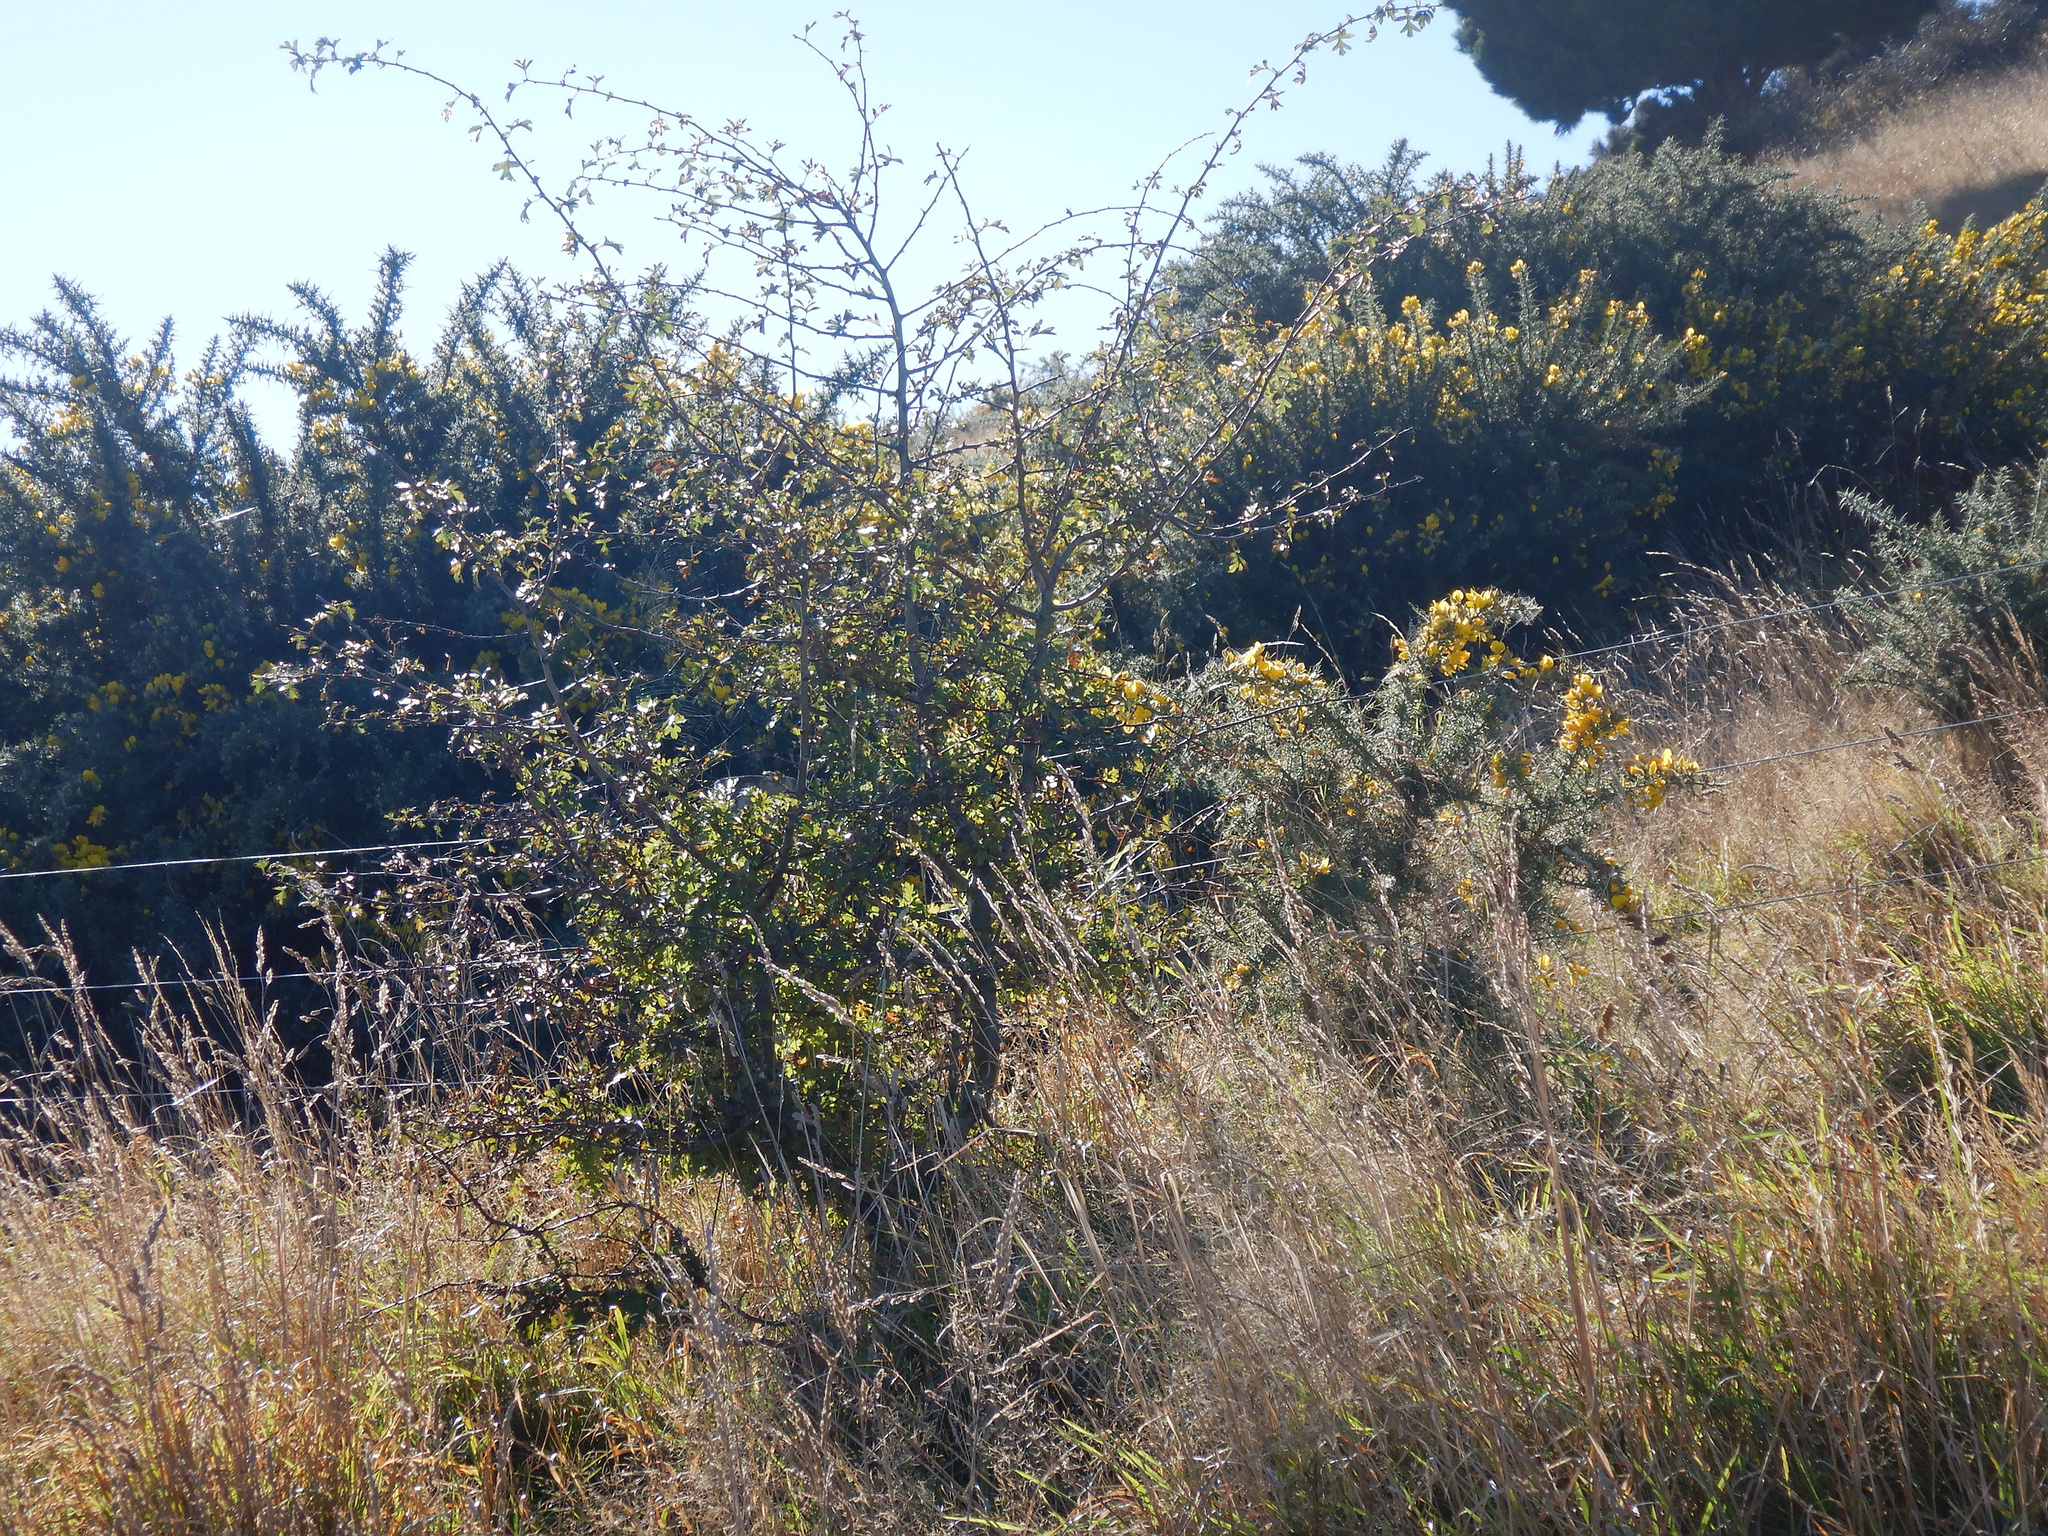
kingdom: Plantae
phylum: Tracheophyta
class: Magnoliopsida
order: Rosales
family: Rosaceae
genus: Crataegus
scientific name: Crataegus monogyna
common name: Hawthorn
